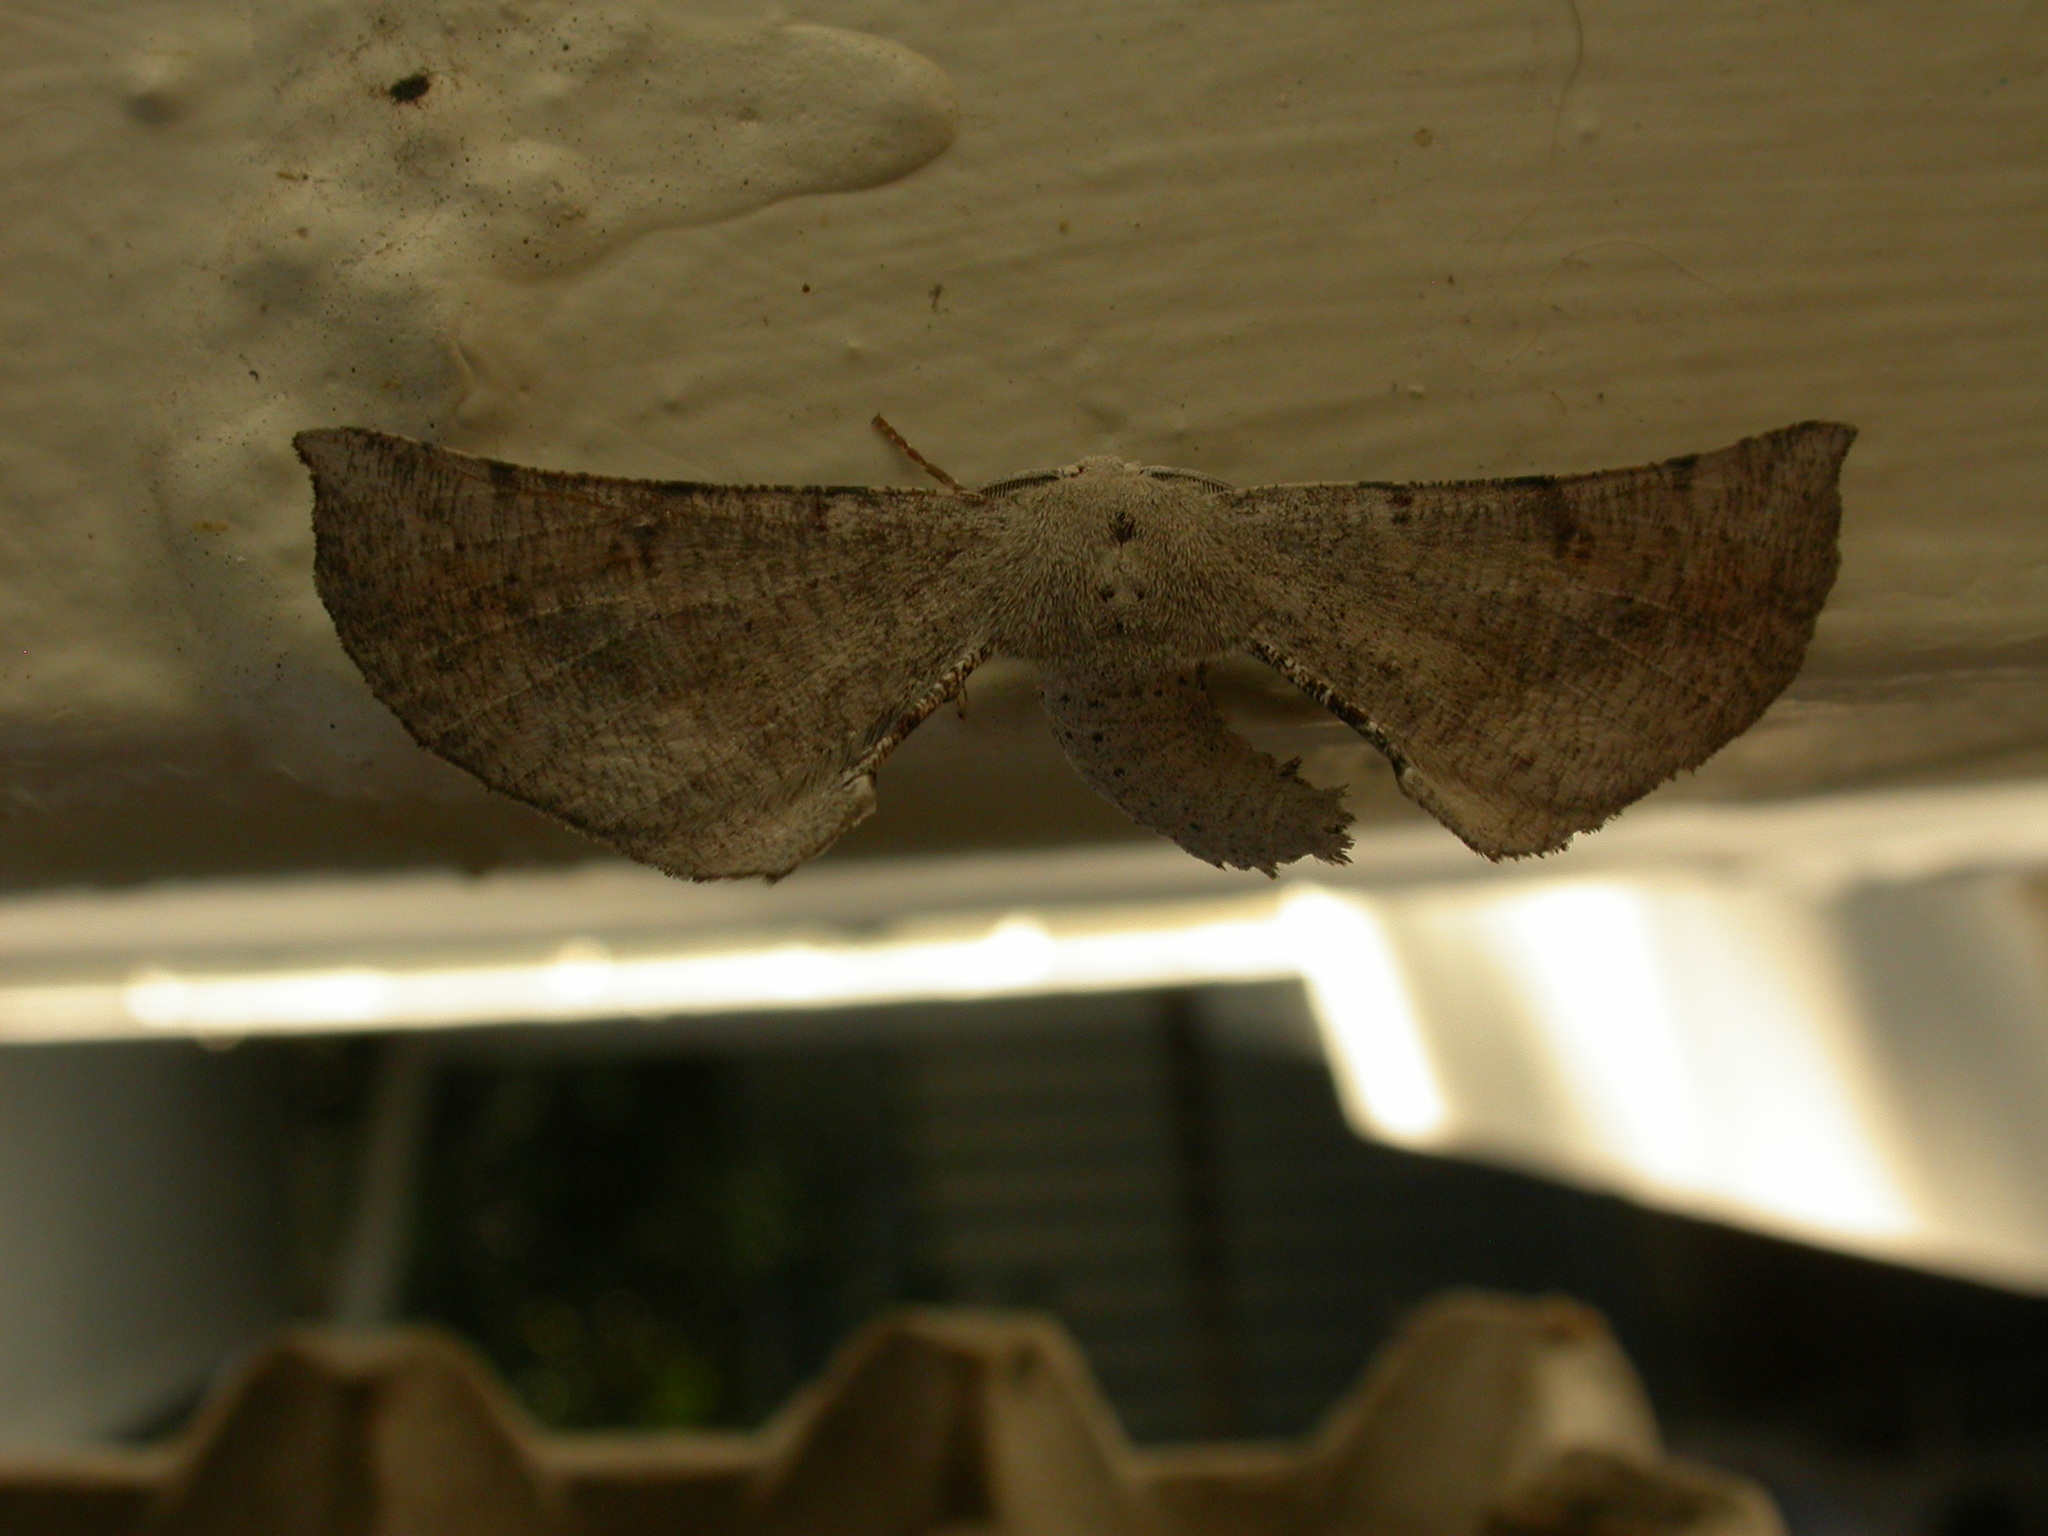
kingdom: Animalia
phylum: Arthropoda
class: Insecta
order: Lepidoptera
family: Geometridae
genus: Circopetes
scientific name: Circopetes obtusata
